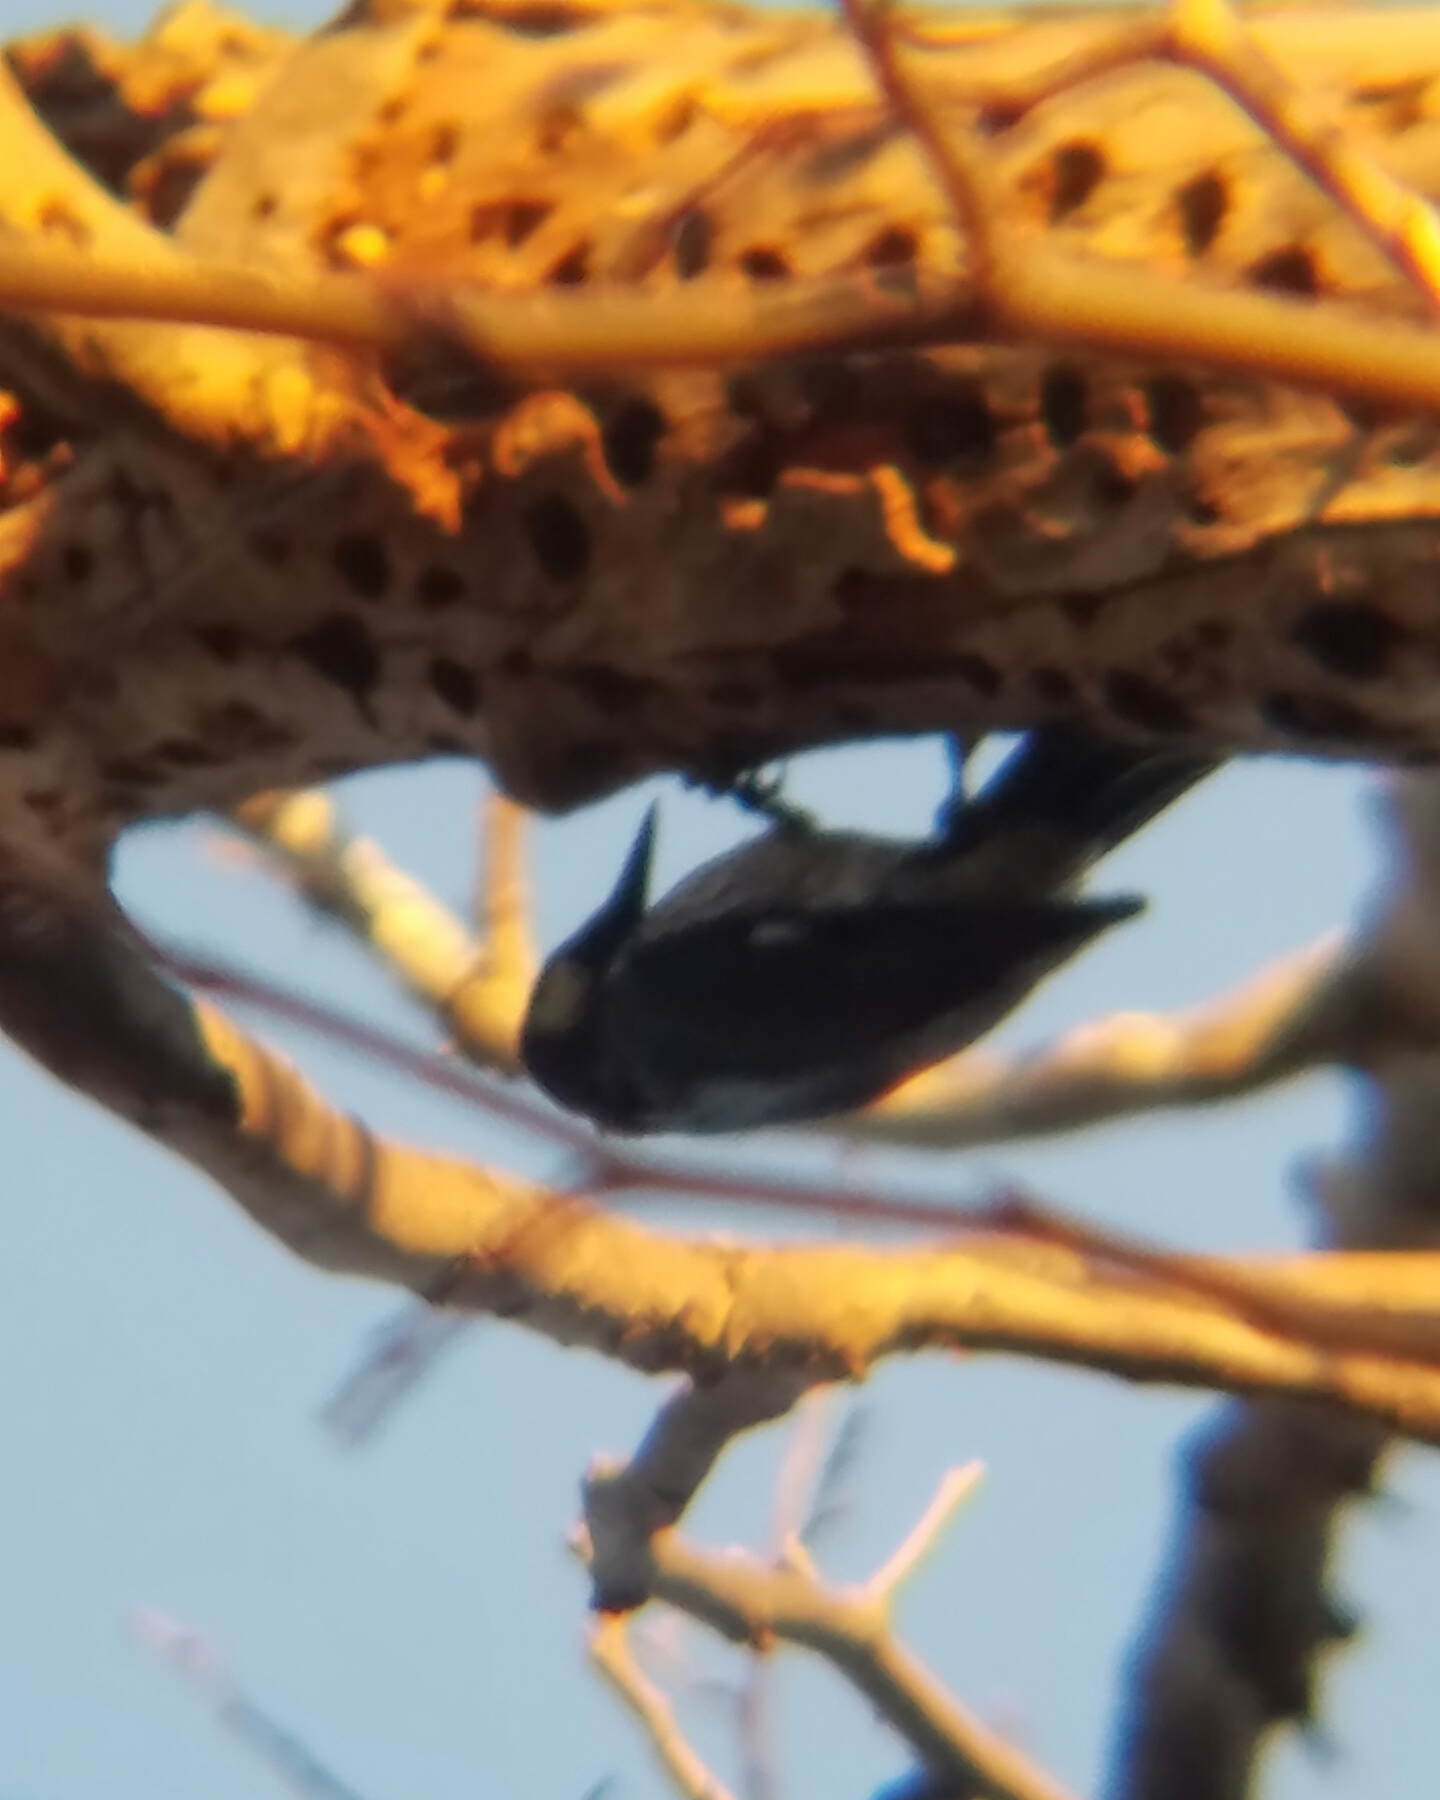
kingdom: Animalia
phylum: Chordata
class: Aves
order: Piciformes
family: Picidae
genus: Melanerpes
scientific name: Melanerpes formicivorus
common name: Acorn woodpecker
